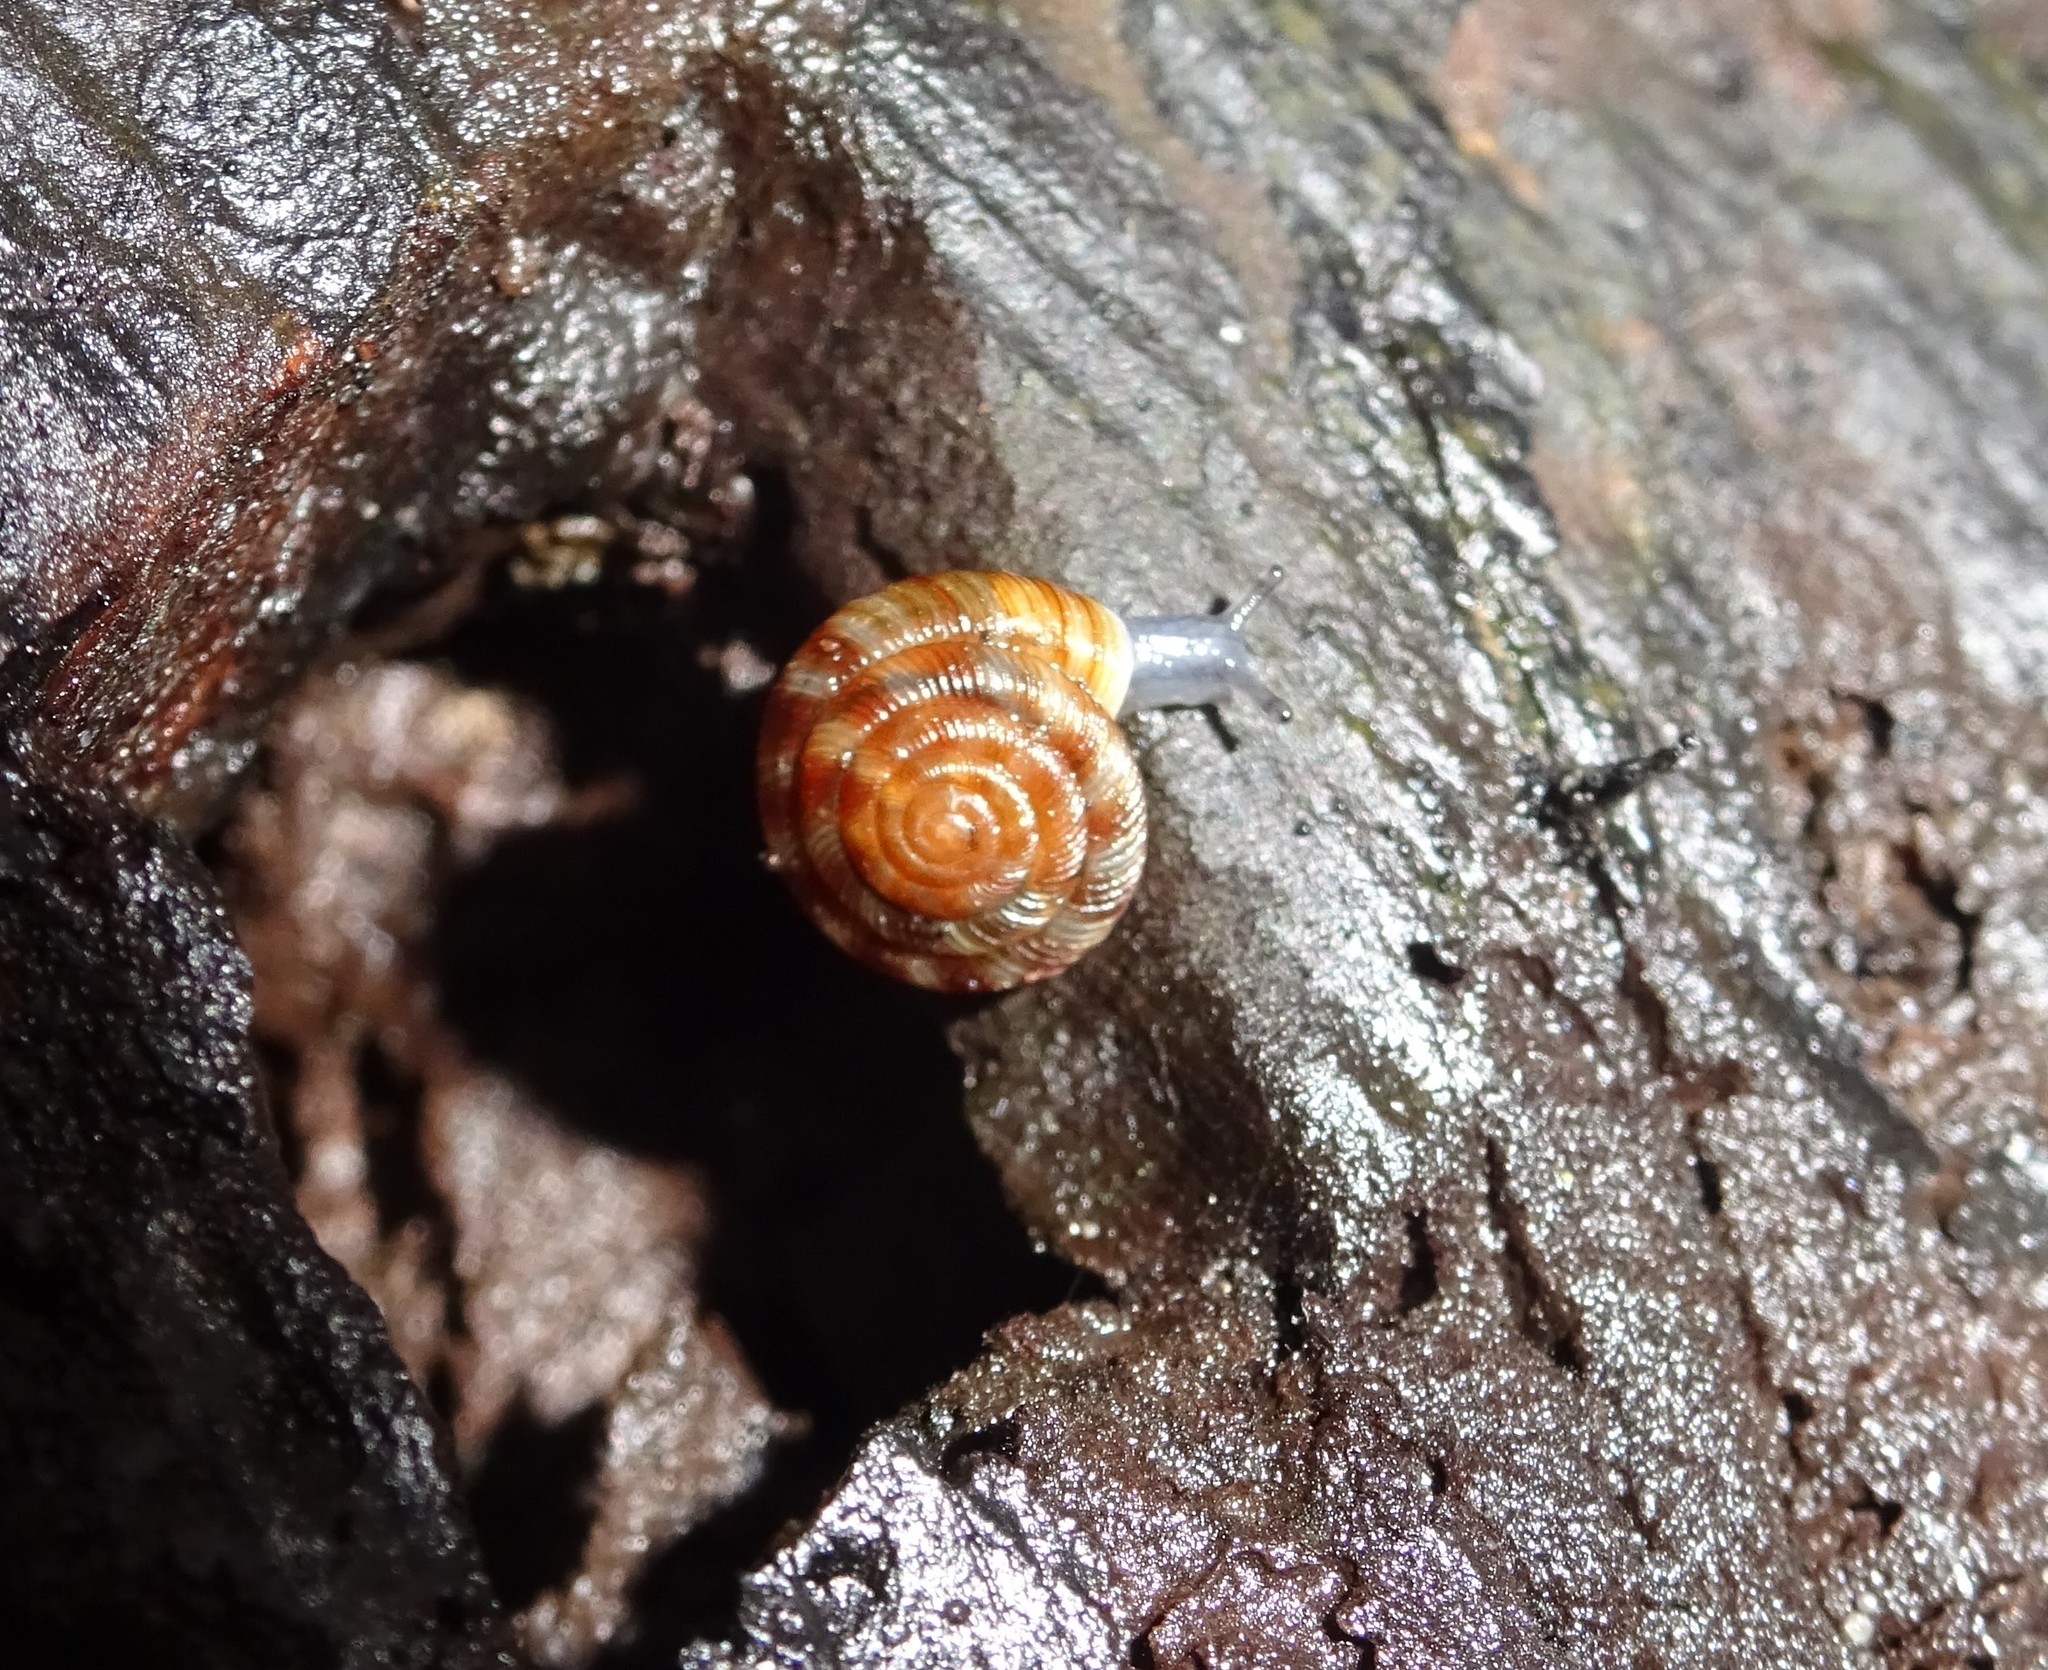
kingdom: Animalia
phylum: Mollusca
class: Gastropoda
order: Stylommatophora
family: Discidae
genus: Discus
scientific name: Discus rotundatus
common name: Rounded snail
